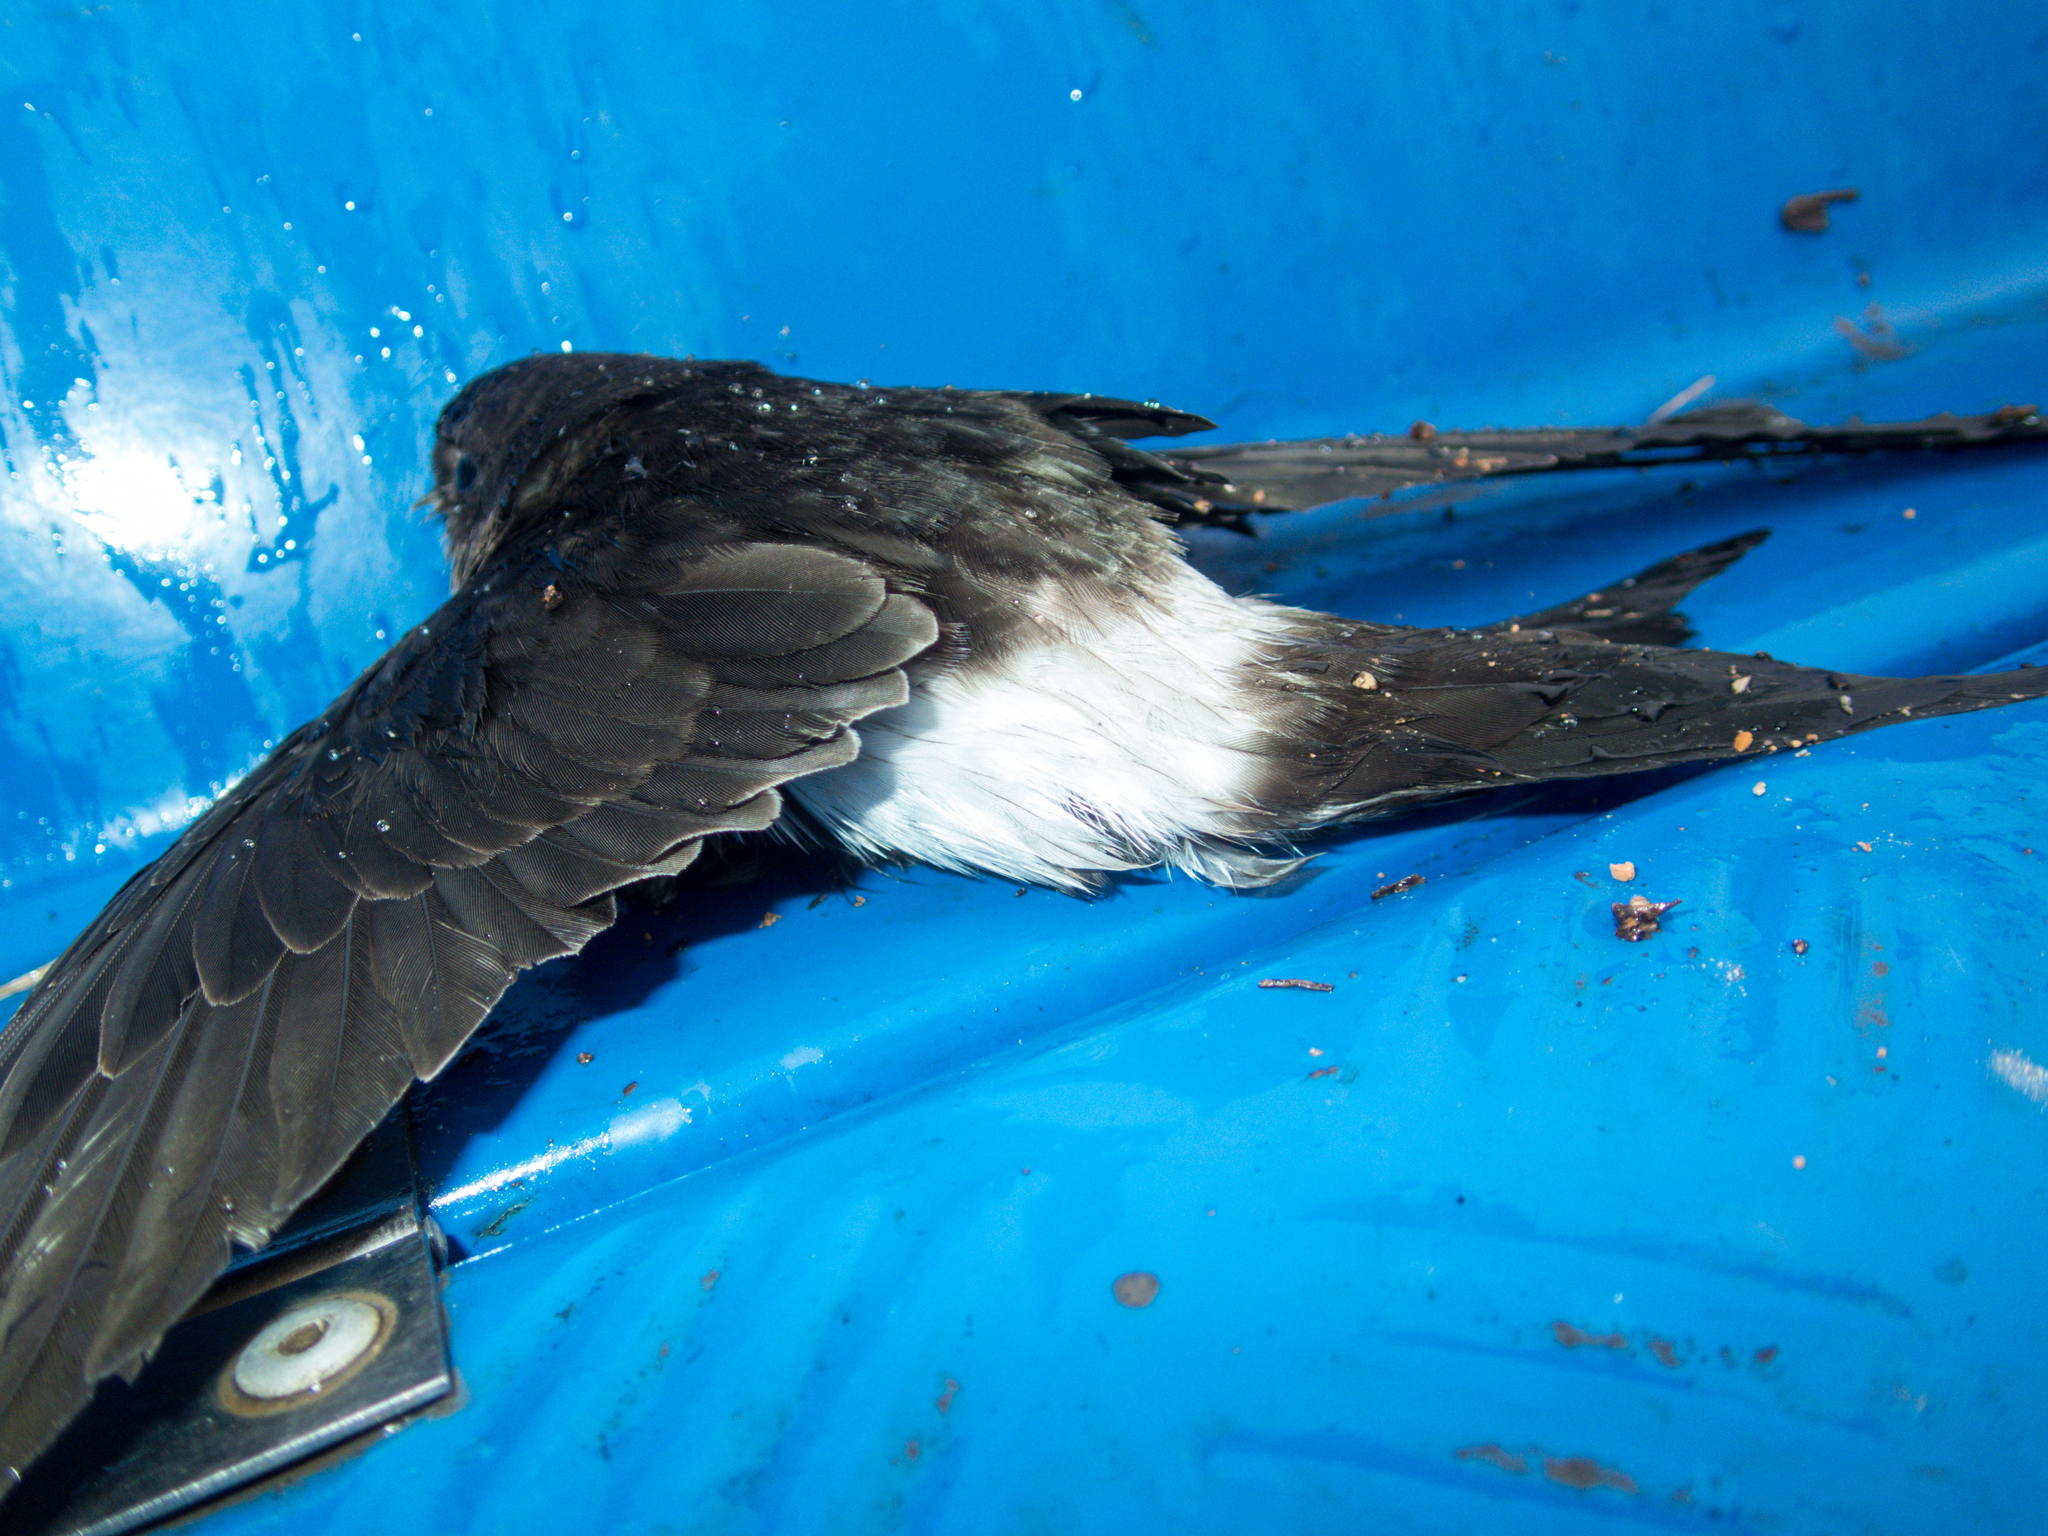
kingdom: Animalia
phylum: Chordata
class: Aves
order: Apodiformes
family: Apodidae
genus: Apus
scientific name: Apus nipalensis
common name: House swift
